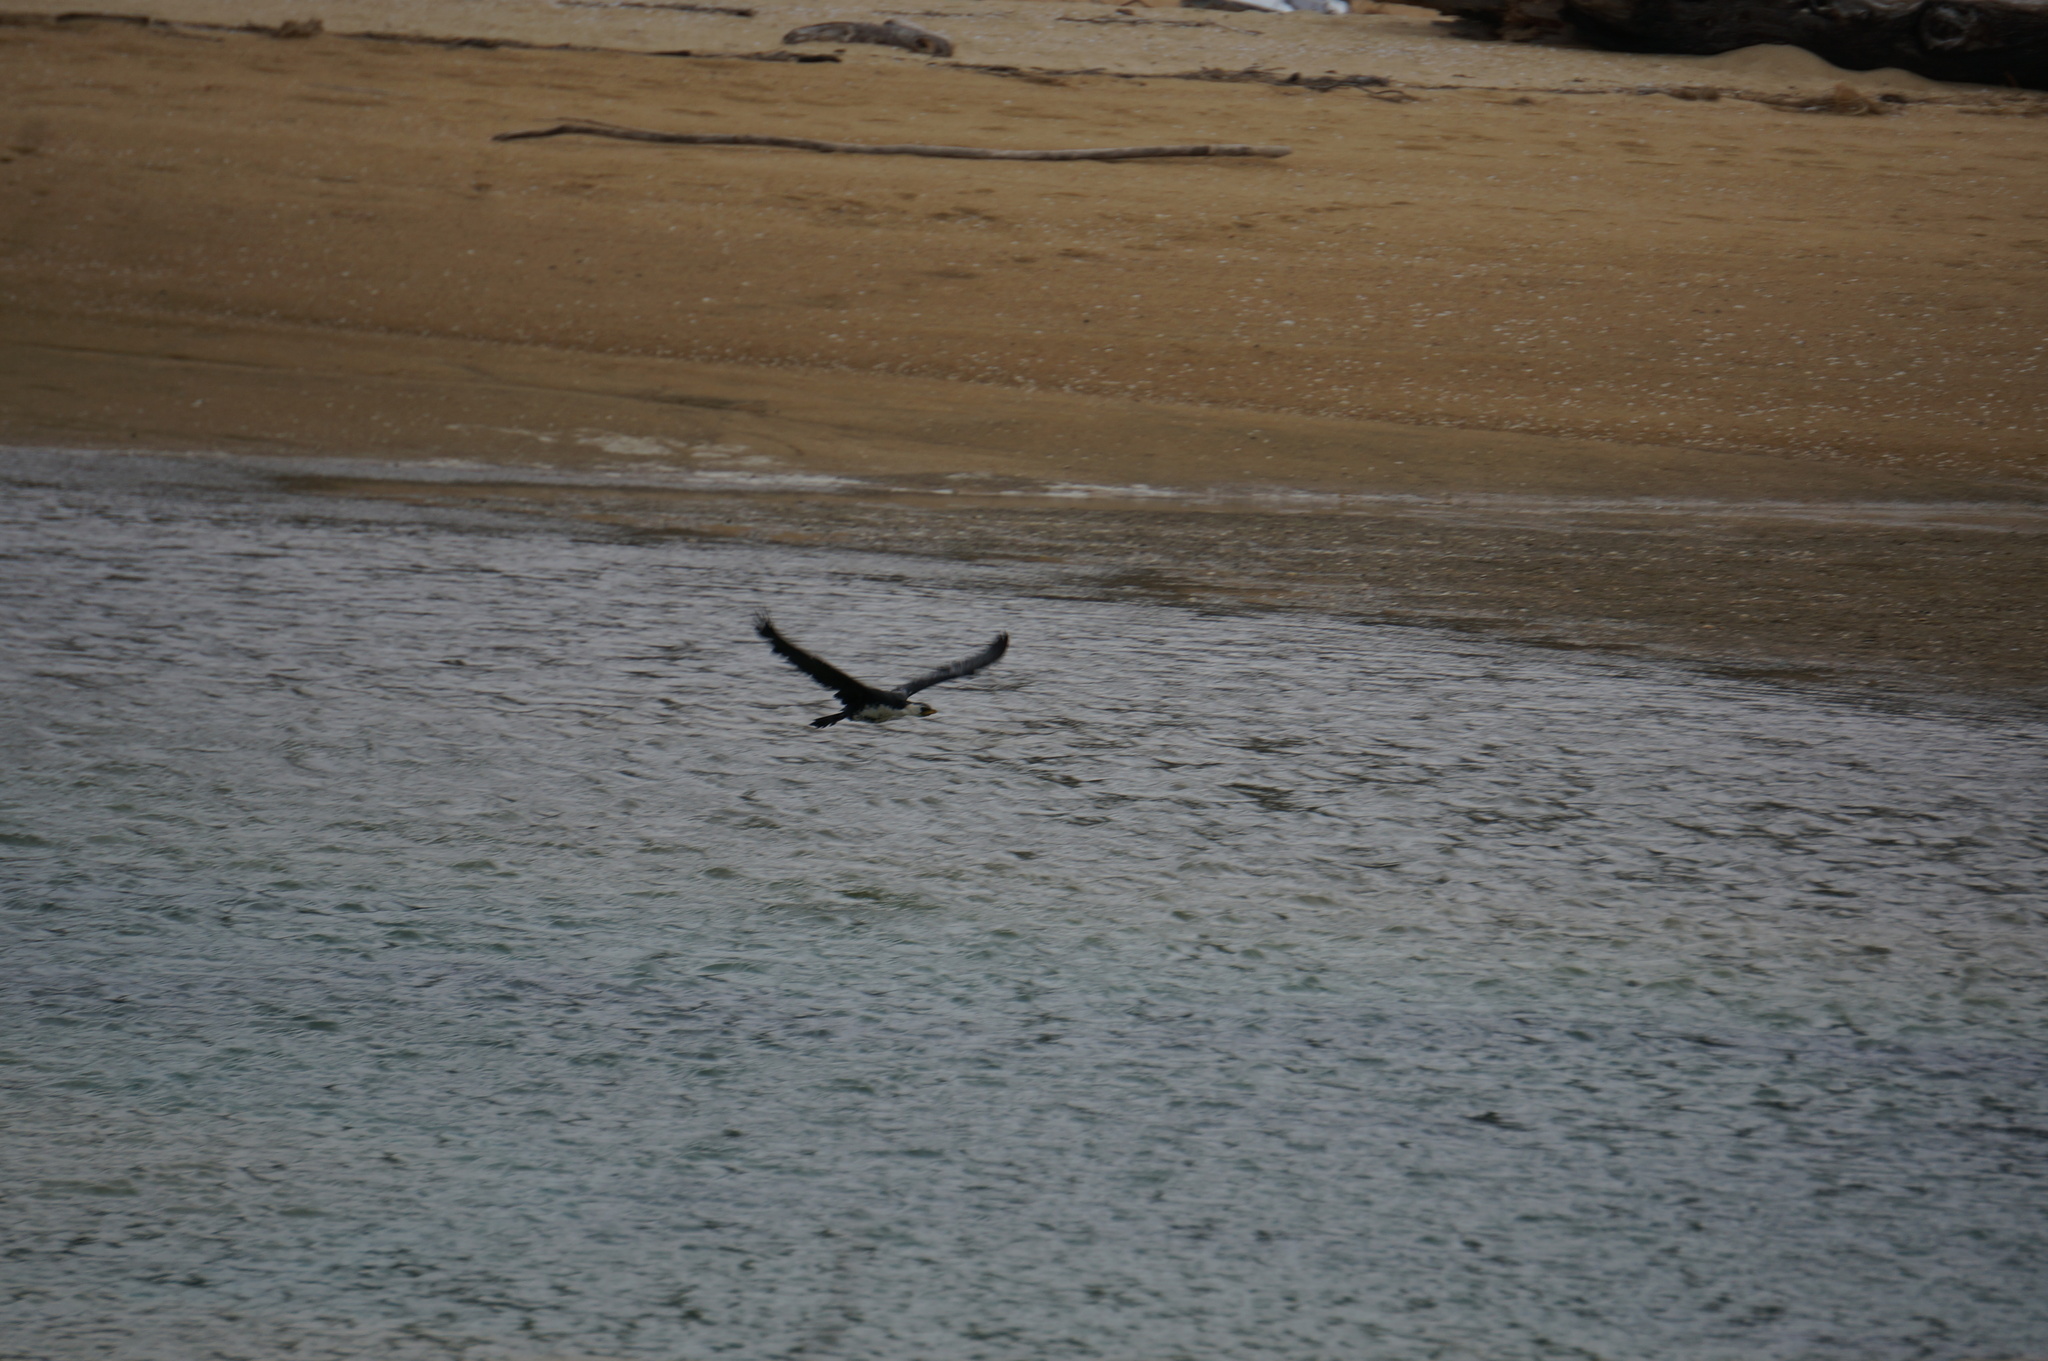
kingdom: Animalia
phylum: Chordata
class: Aves
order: Suliformes
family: Phalacrocoracidae
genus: Microcarbo
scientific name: Microcarbo melanoleucos
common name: Little pied cormorant
